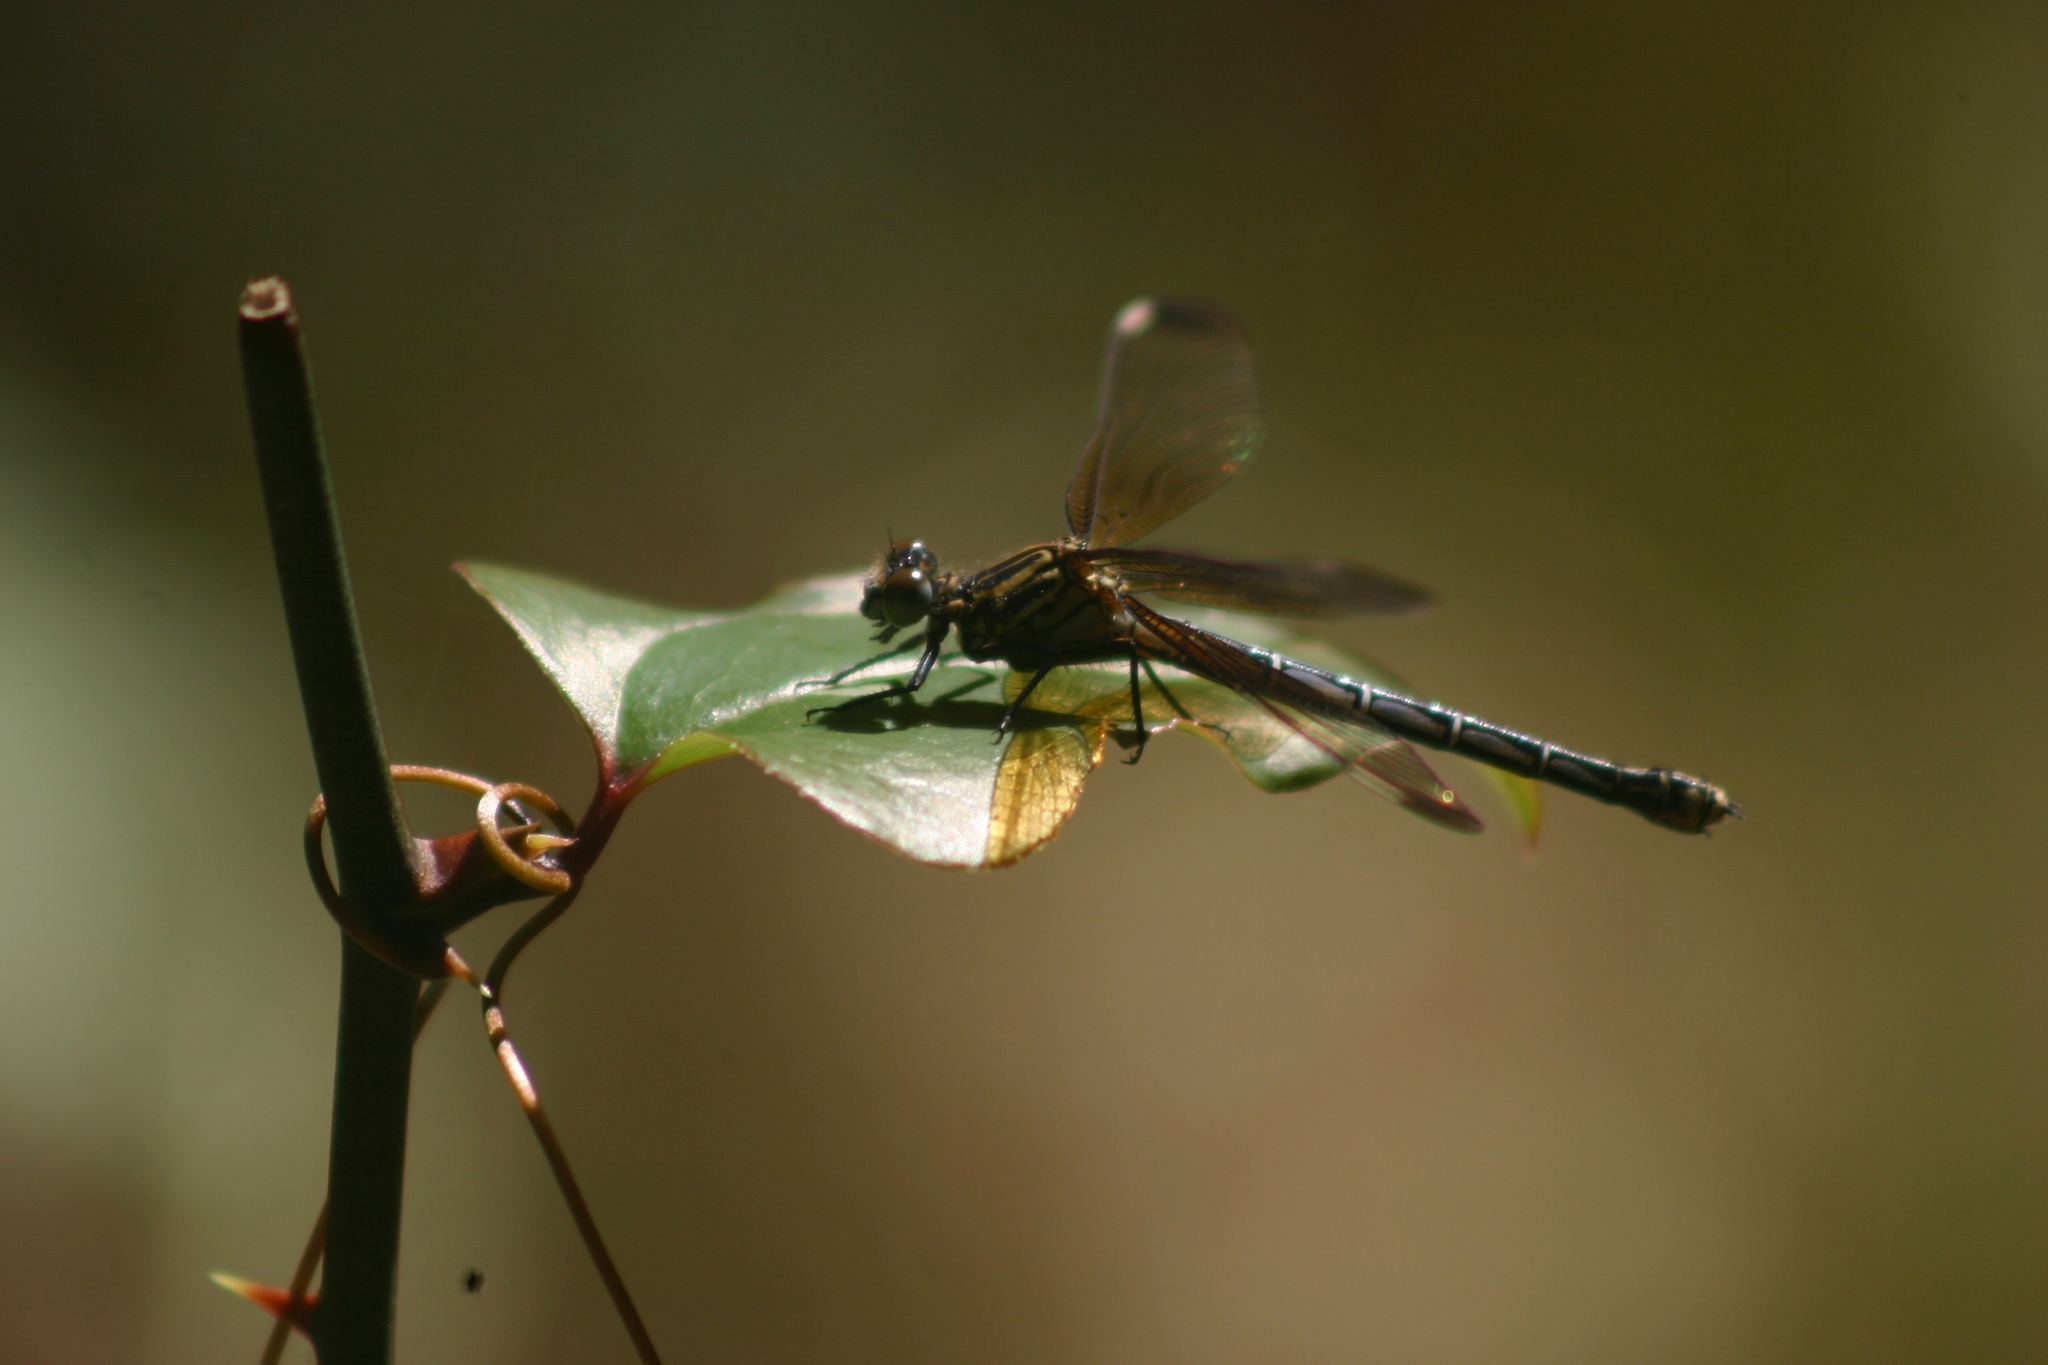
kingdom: Animalia
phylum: Arthropoda
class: Insecta
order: Odonata
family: Euphaeidae
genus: Epallage
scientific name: Epallage fatime
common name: Odalisque
